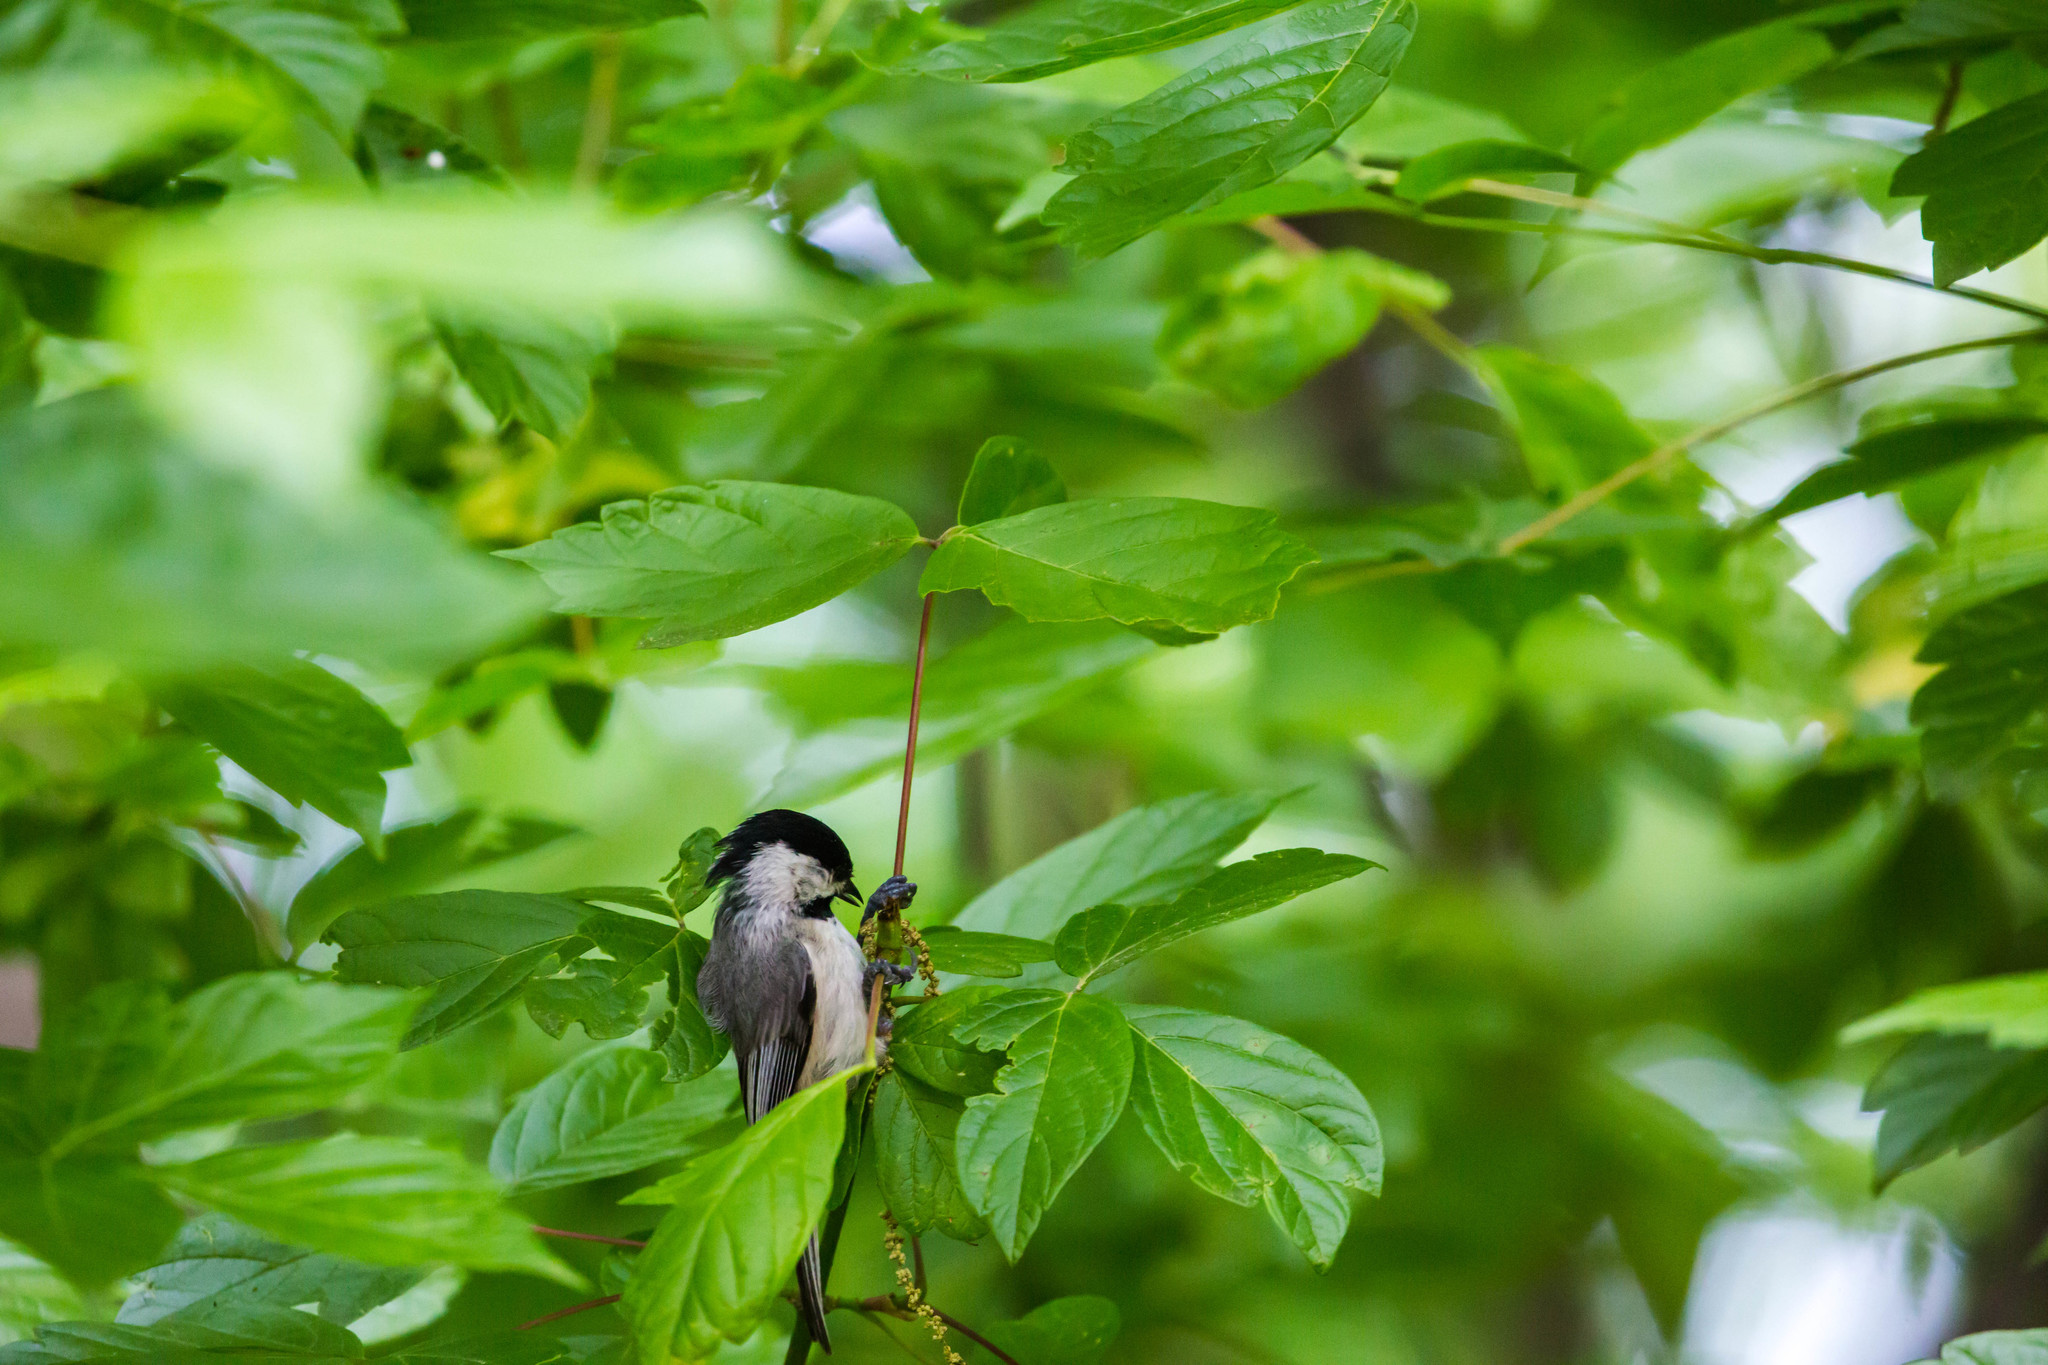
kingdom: Animalia
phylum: Chordata
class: Aves
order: Passeriformes
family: Paridae
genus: Poecile
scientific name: Poecile carolinensis
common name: Carolina chickadee
